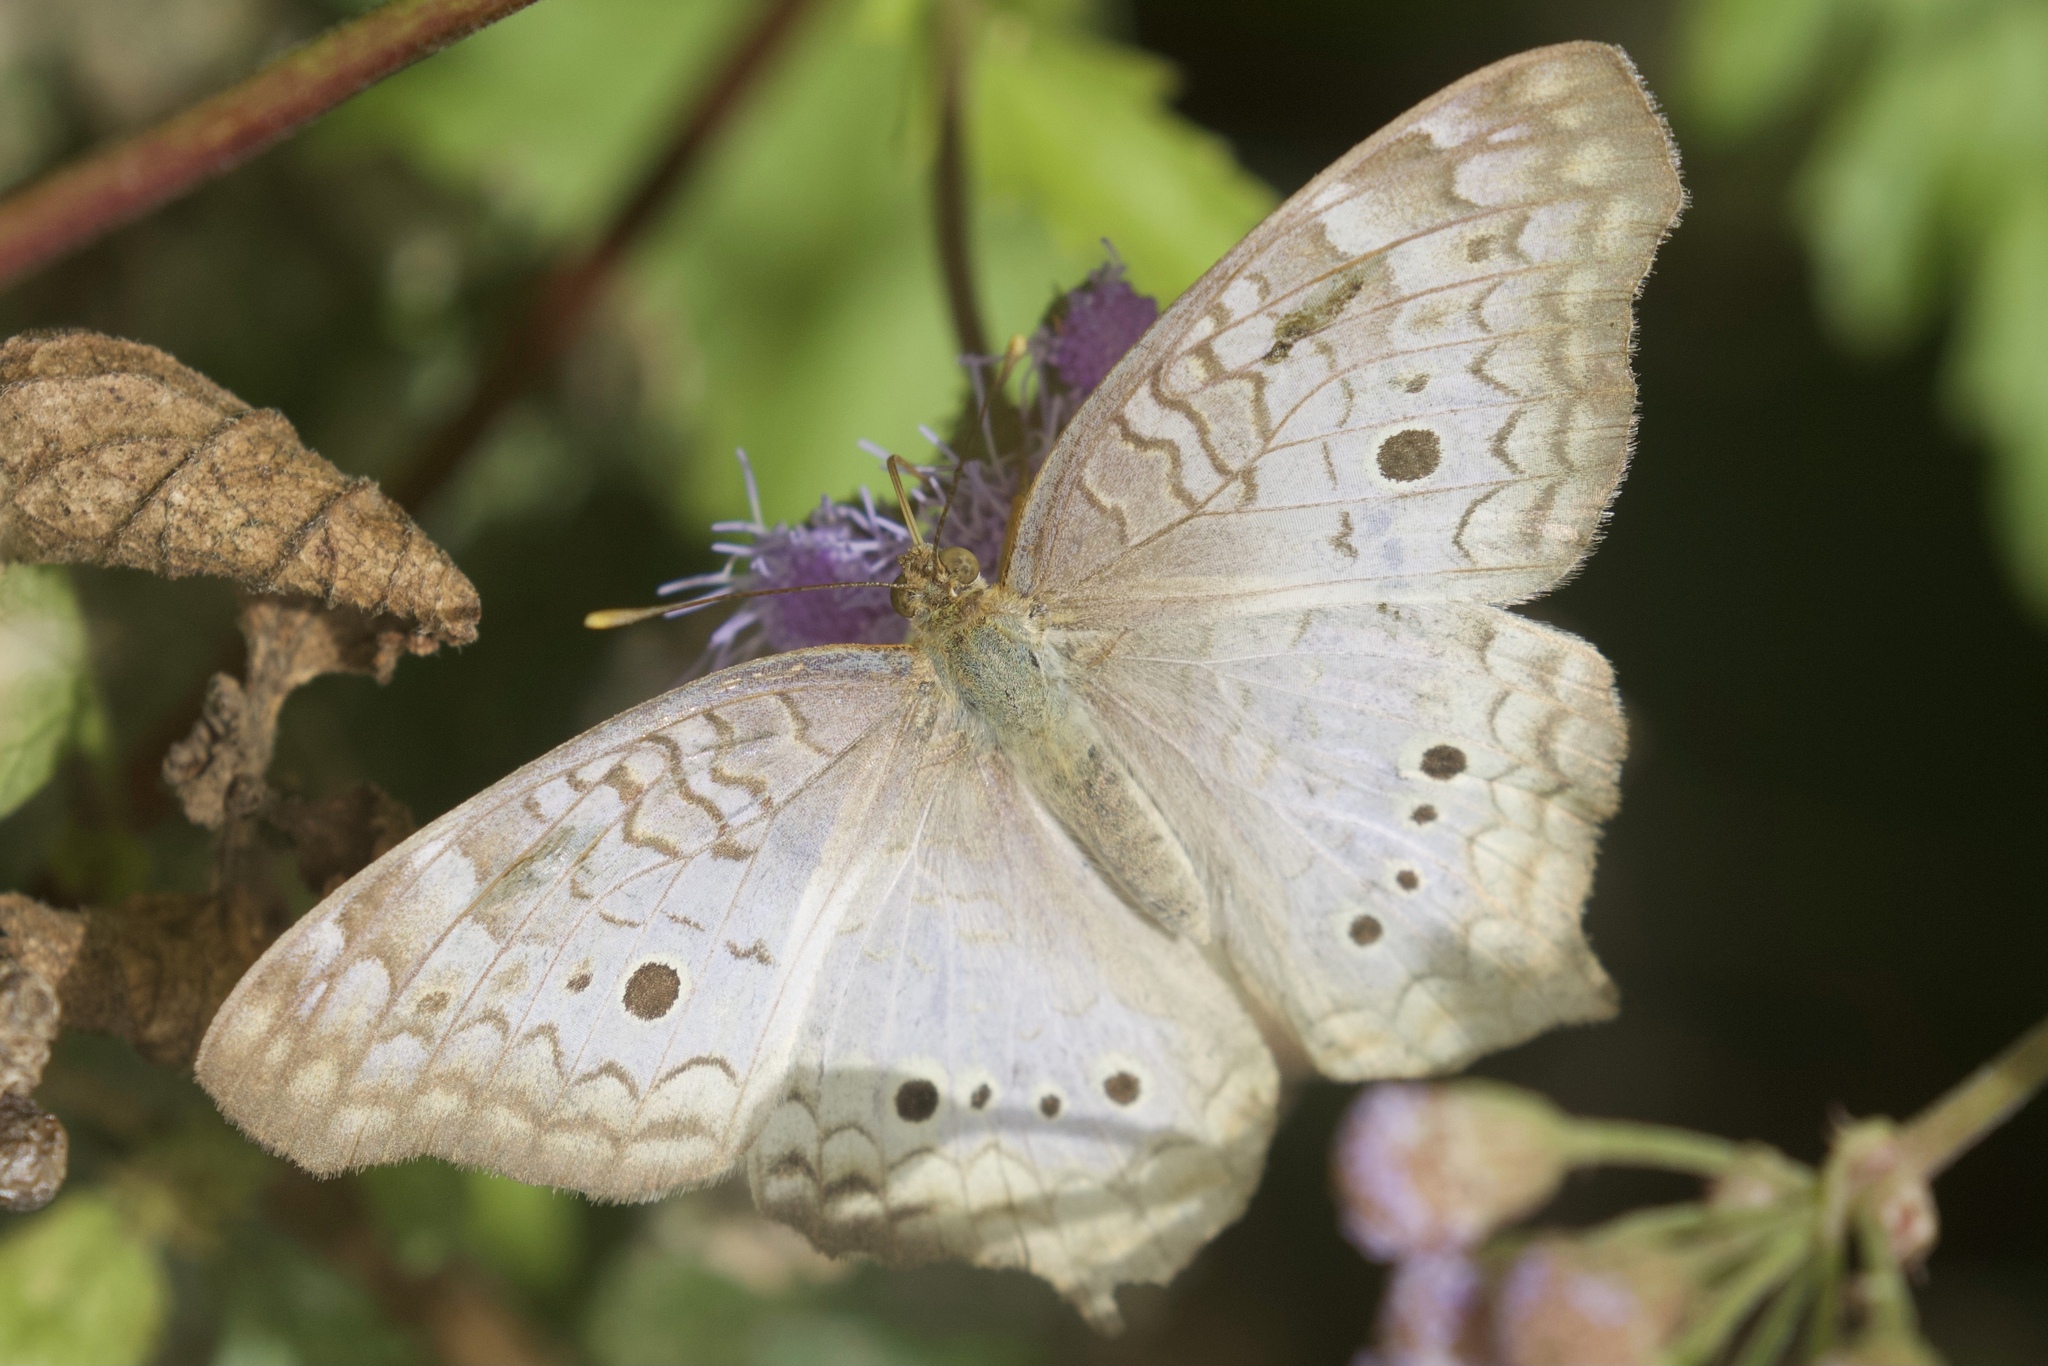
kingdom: Animalia
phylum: Arthropoda
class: Insecta
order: Lepidoptera
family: Nymphalidae
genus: Anartia
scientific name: Anartia jatrophae
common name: White peacock
